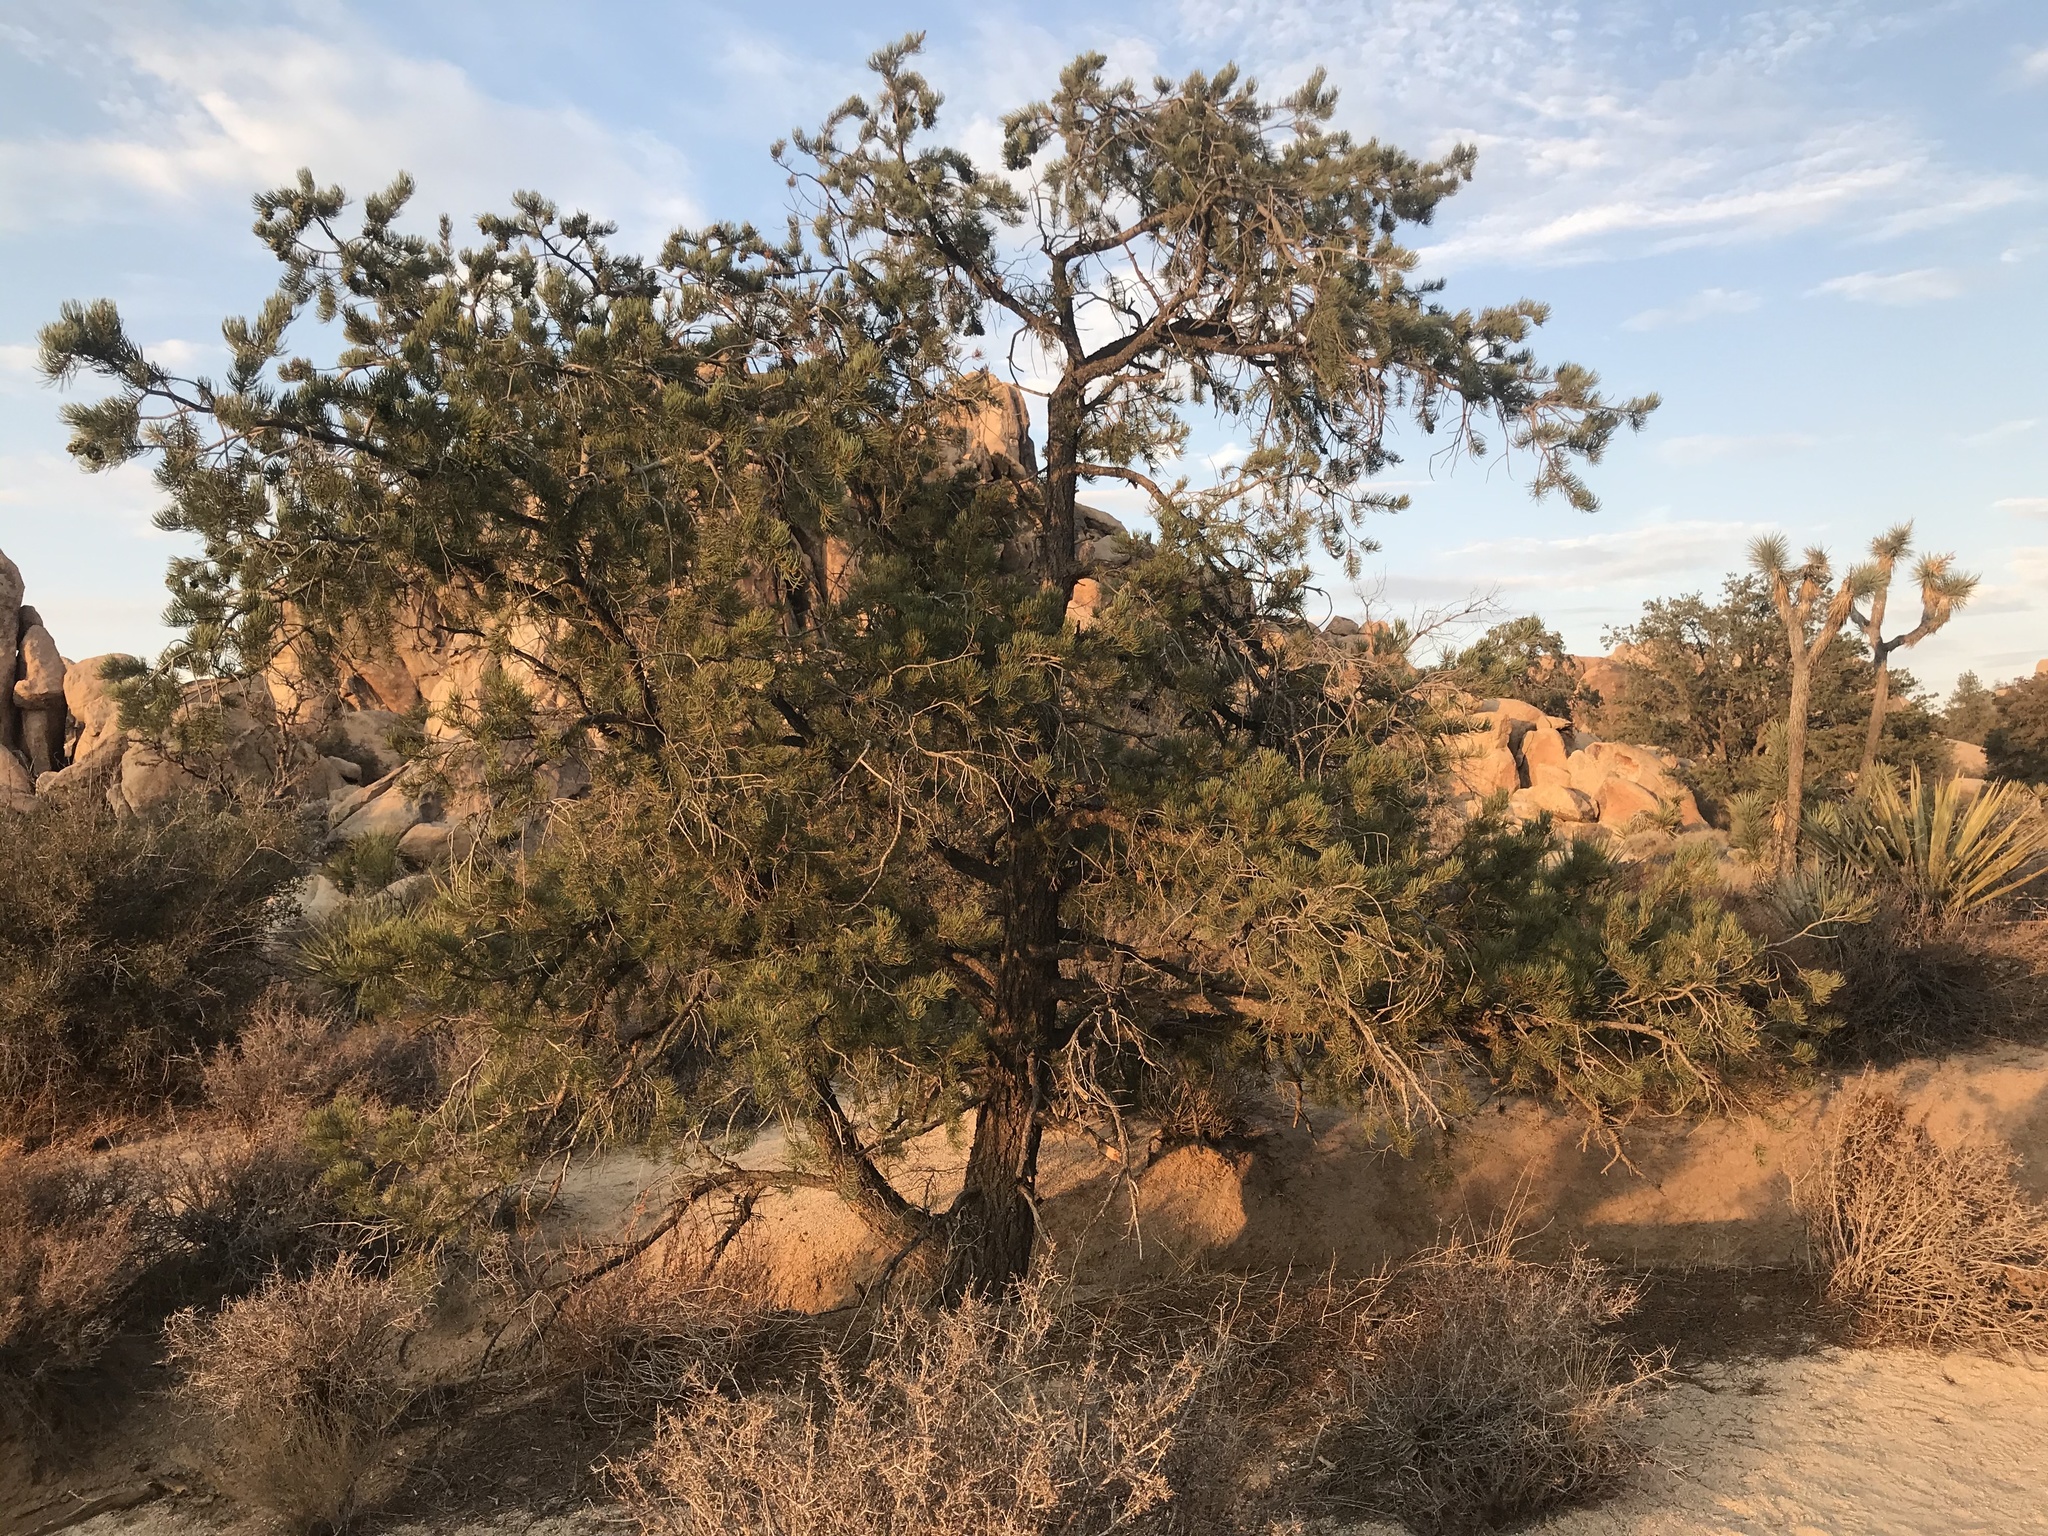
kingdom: Plantae
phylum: Tracheophyta
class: Pinopsida
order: Pinales
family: Pinaceae
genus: Pinus
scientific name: Pinus monophylla
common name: One-leaved nut pine
